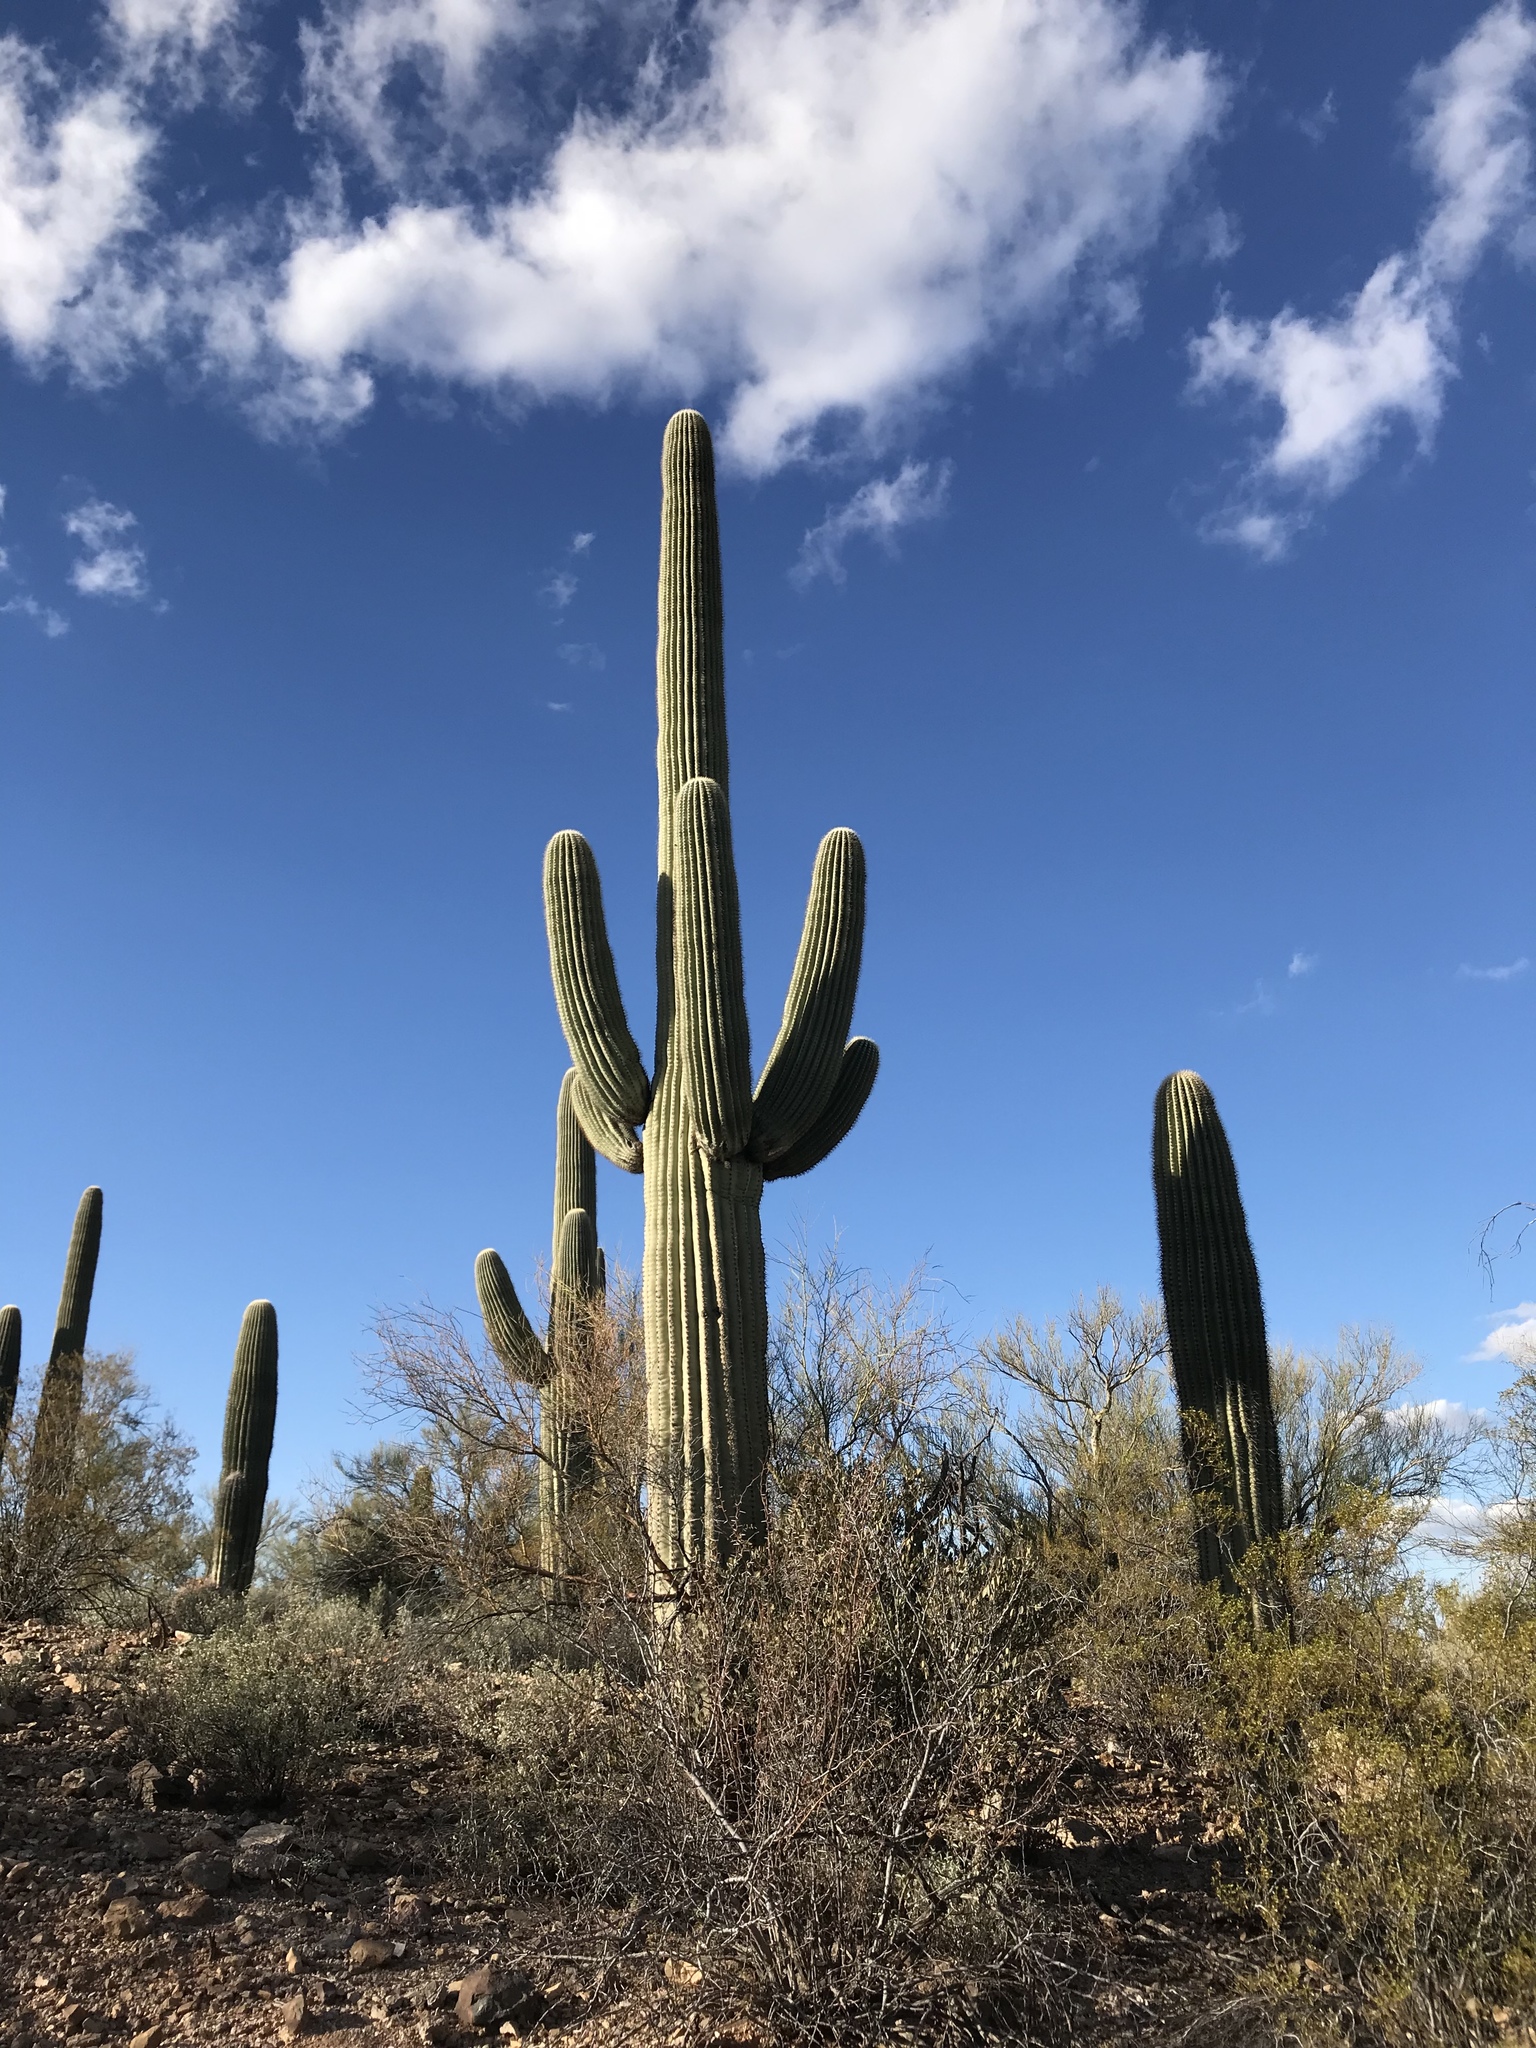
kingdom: Plantae
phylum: Tracheophyta
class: Magnoliopsida
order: Caryophyllales
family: Cactaceae
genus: Carnegiea
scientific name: Carnegiea gigantea
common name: Saguaro
